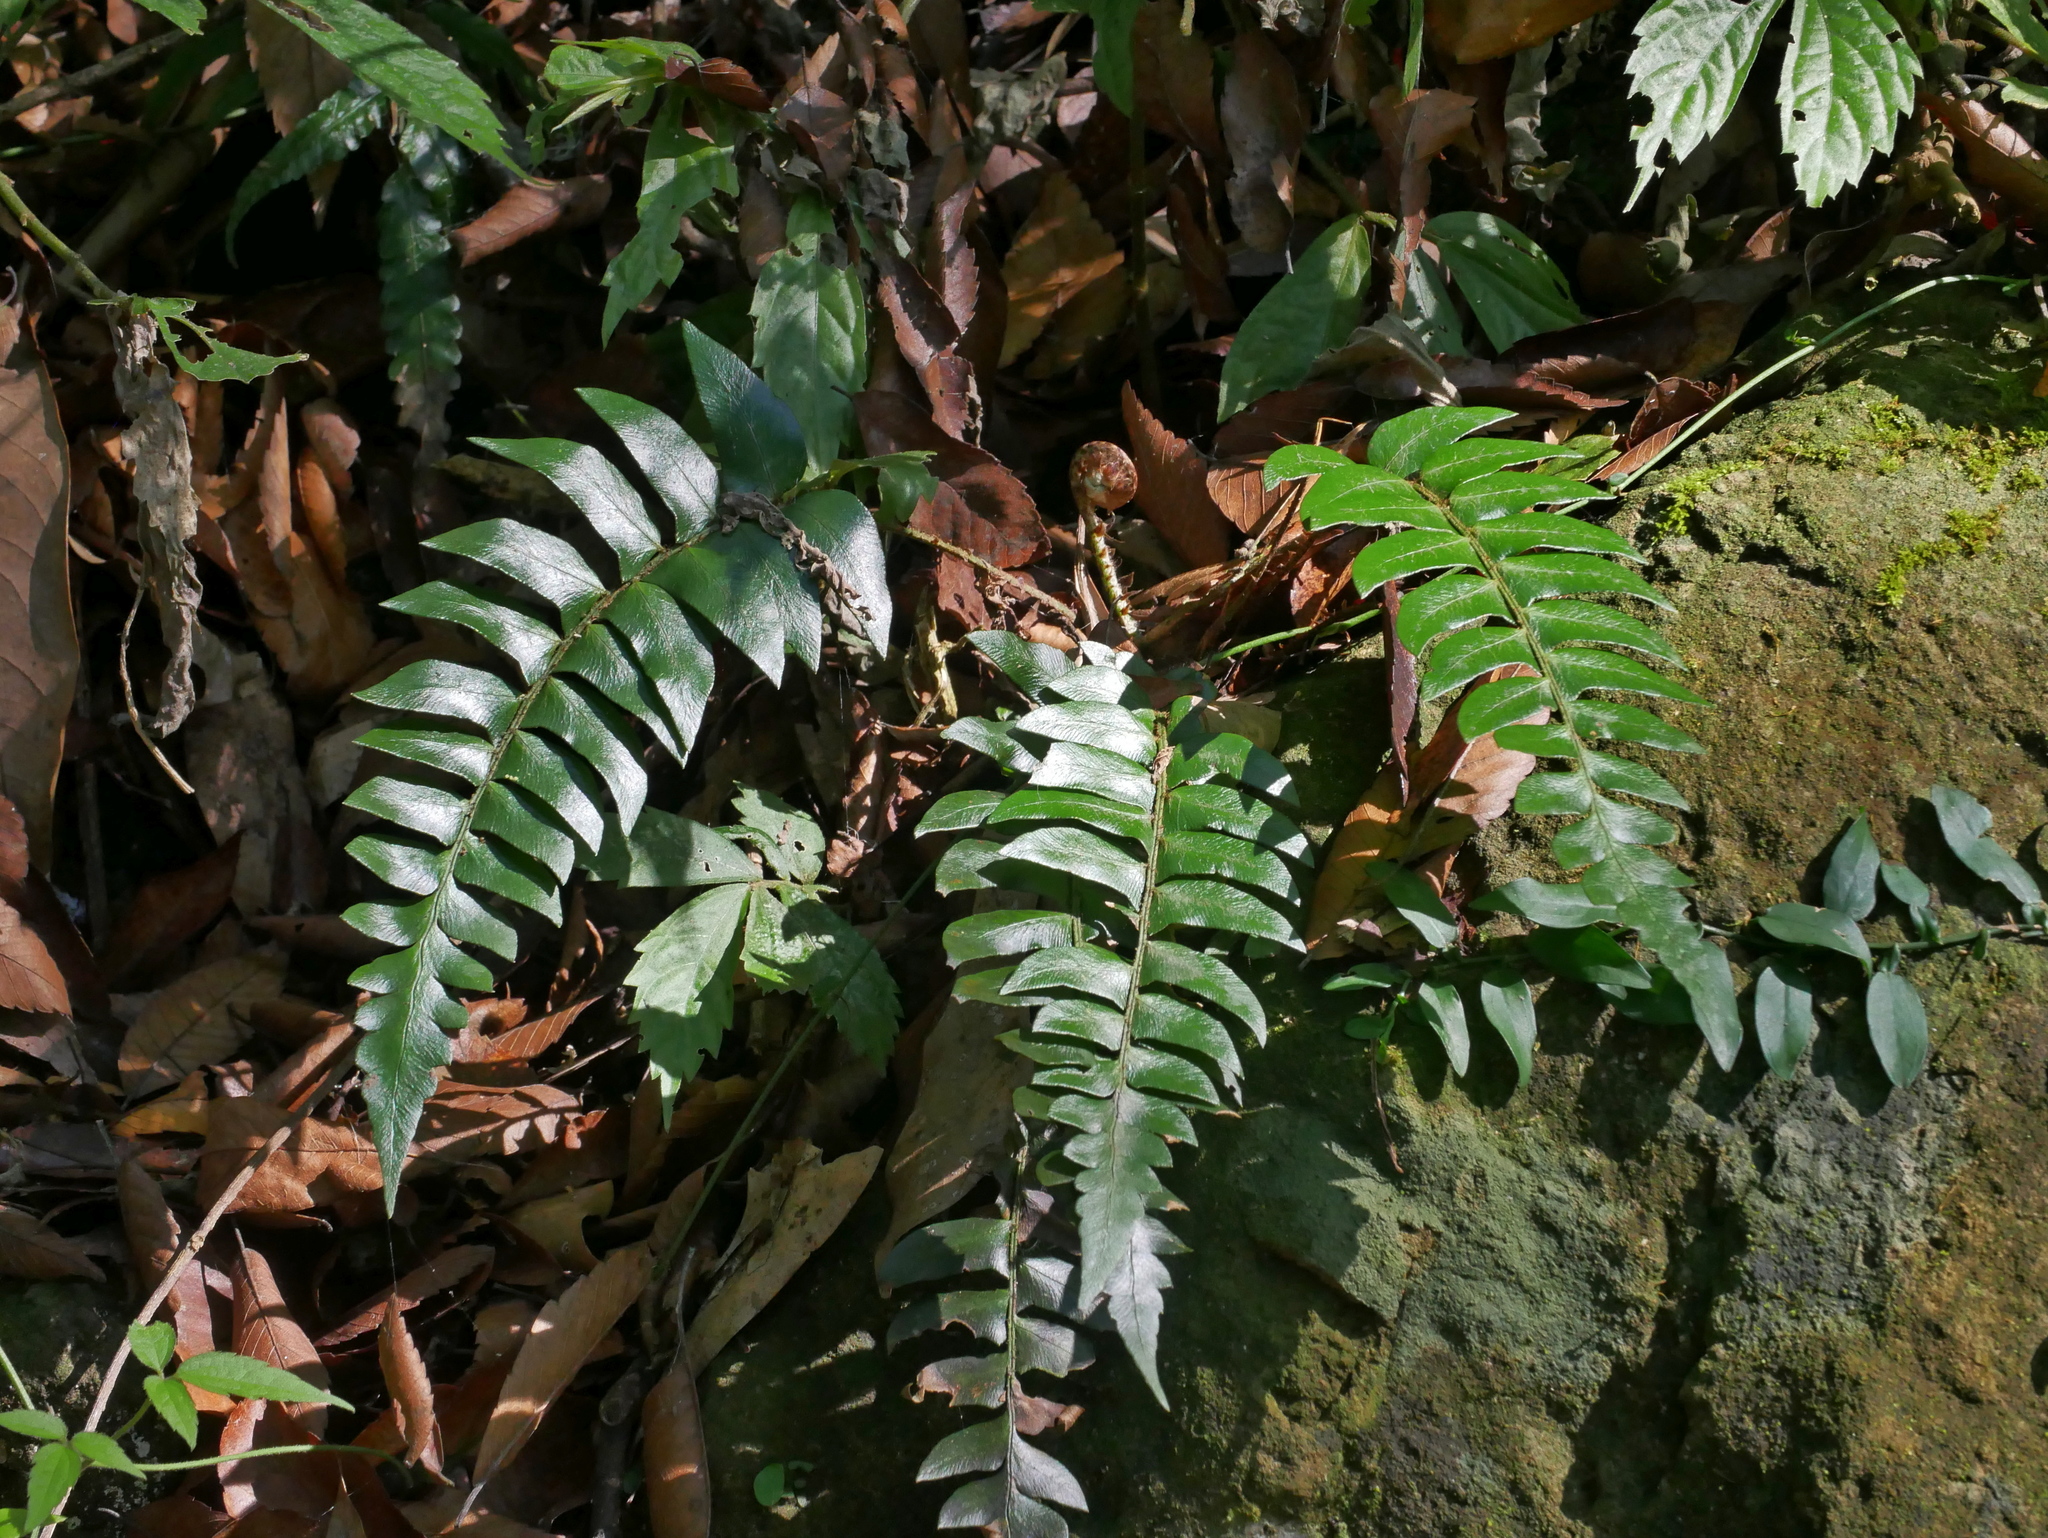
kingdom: Plantae
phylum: Tracheophyta
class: Polypodiopsida
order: Polypodiales
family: Dryopteridaceae
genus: Polystichum
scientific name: Polystichum lepidocaulon
